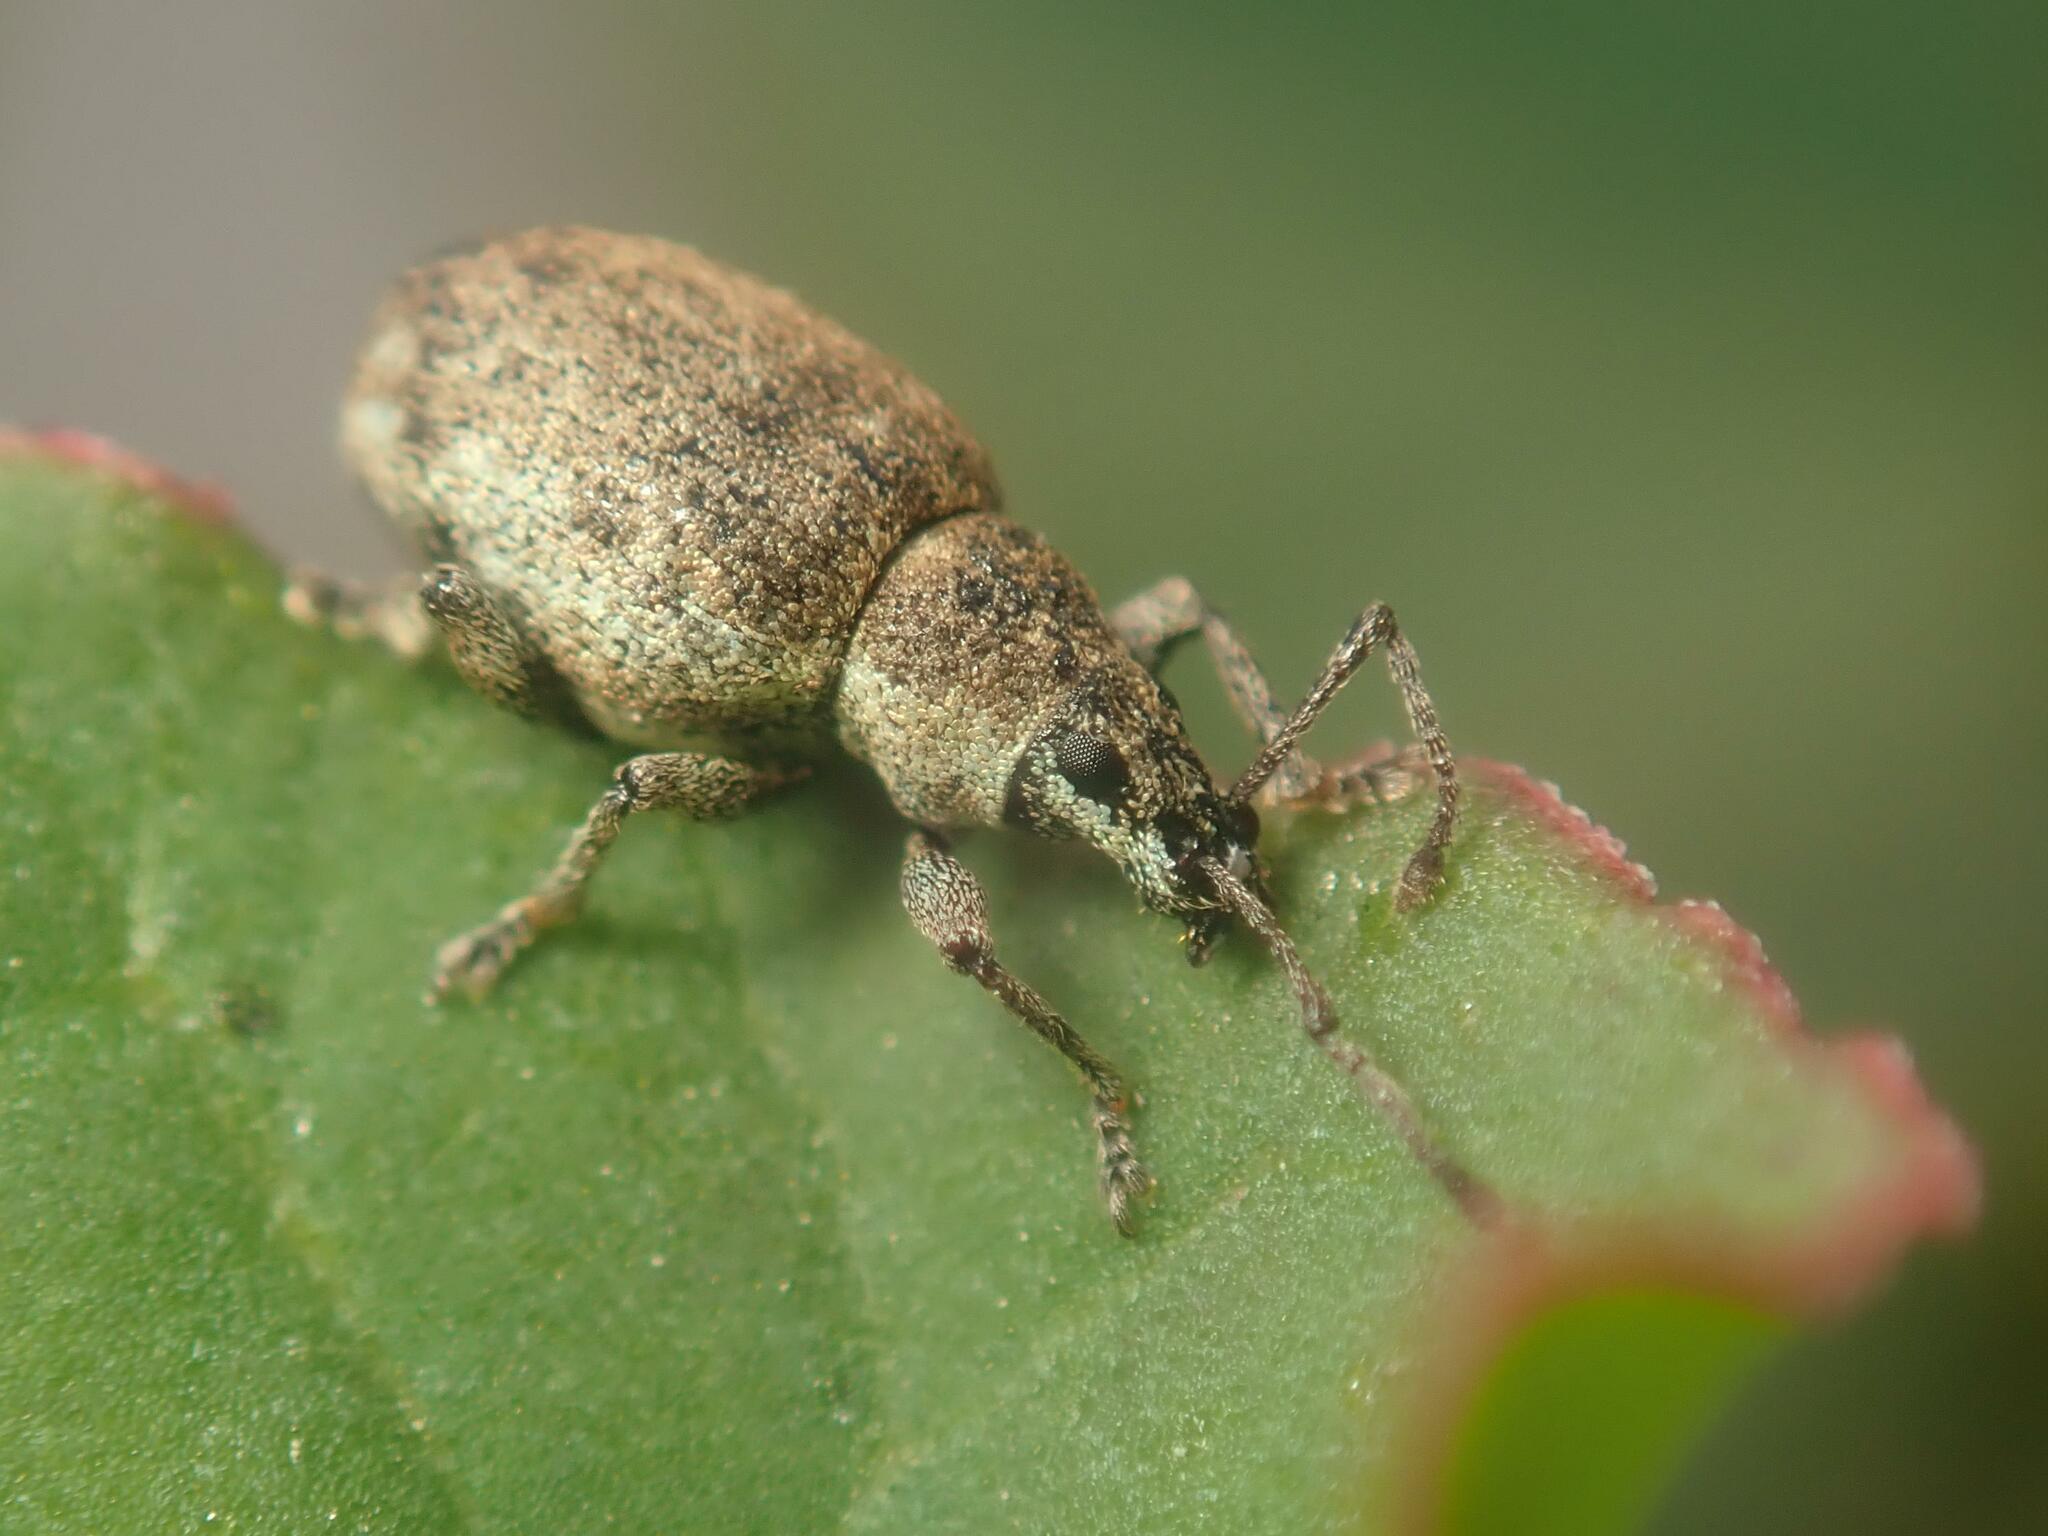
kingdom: Animalia
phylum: Arthropoda
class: Insecta
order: Coleoptera
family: Curculionidae
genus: Peritelus
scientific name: Peritelus sphaeroides
